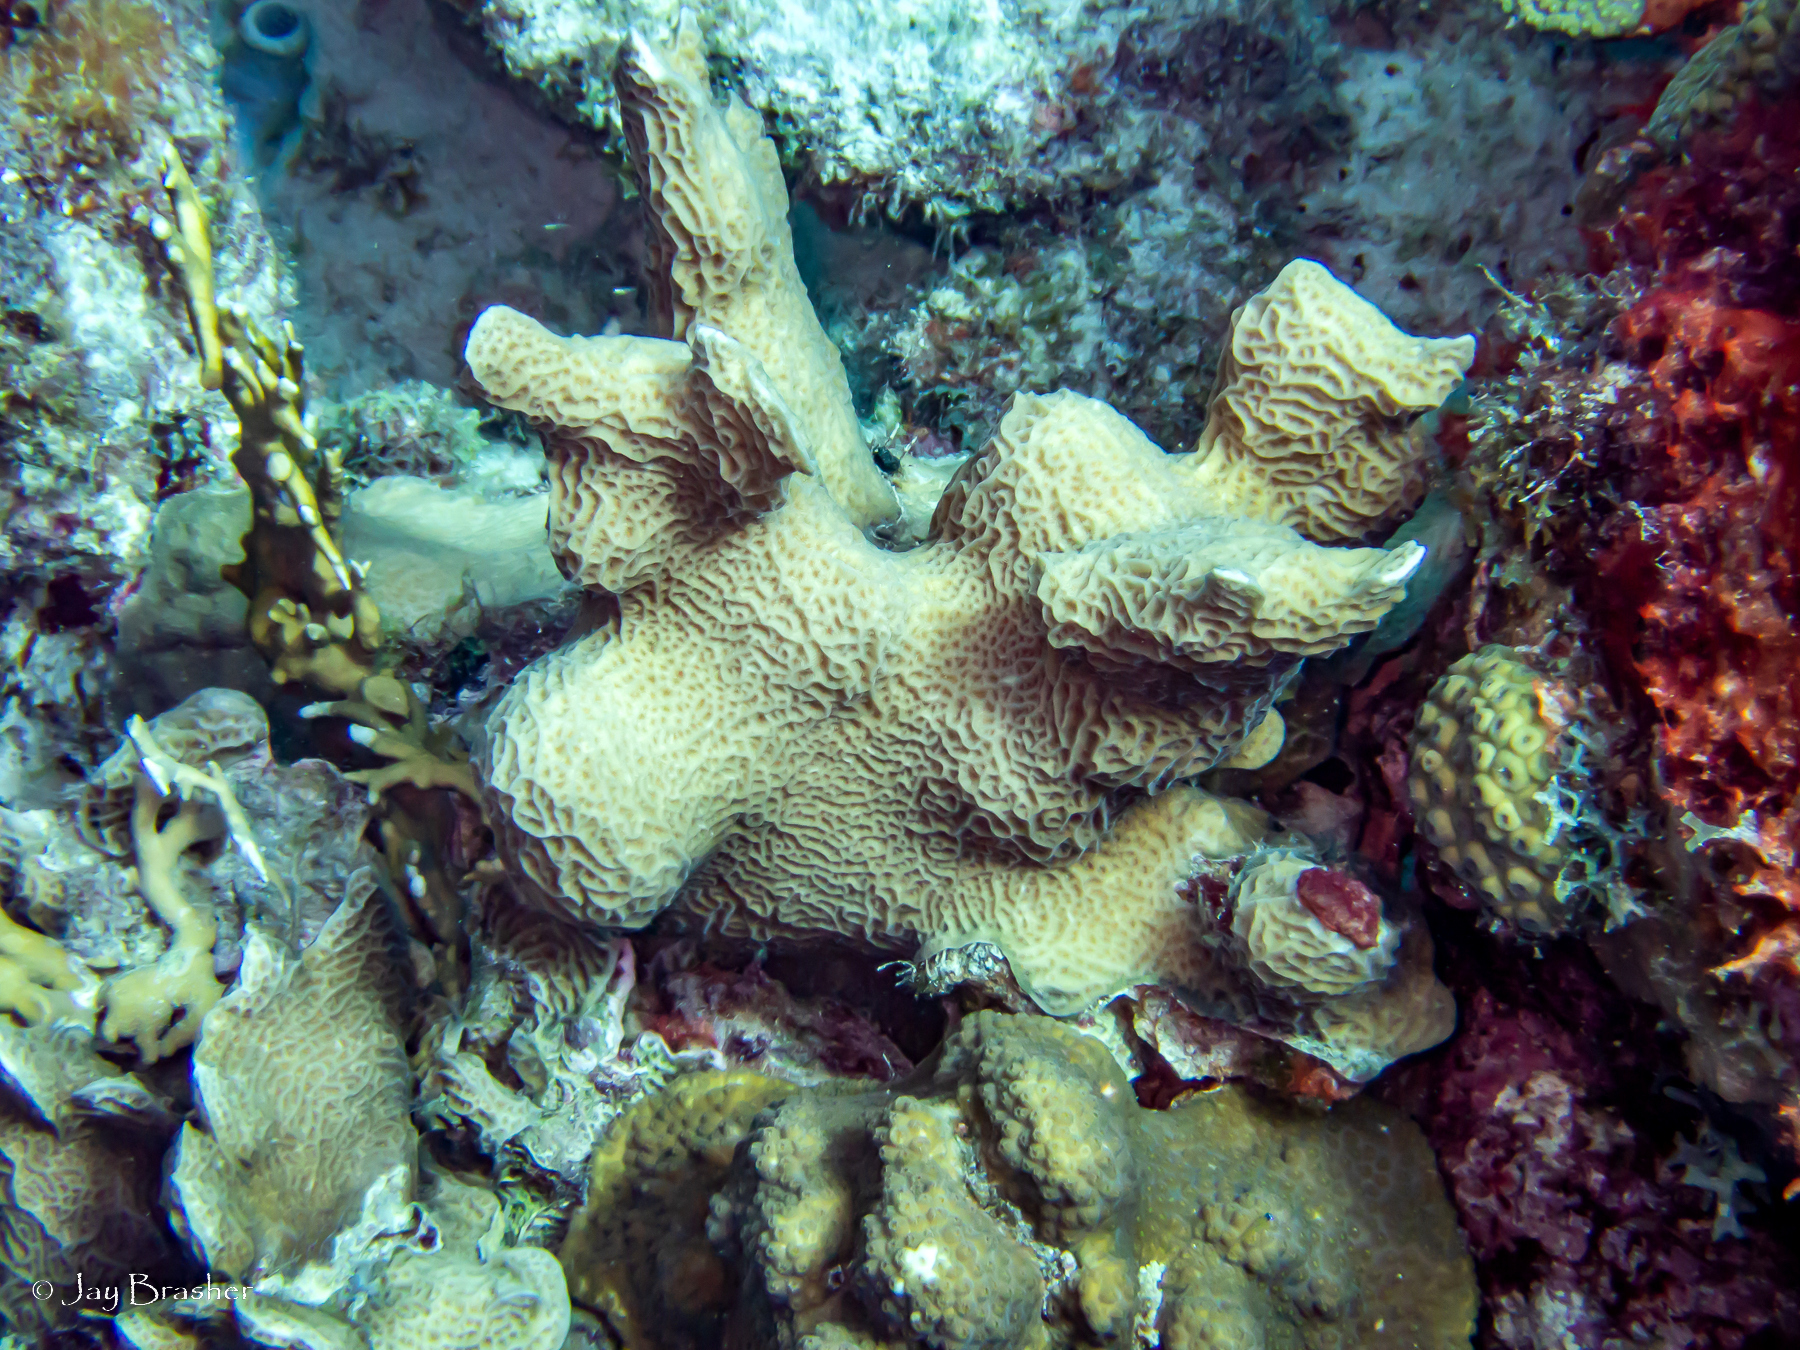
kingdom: Animalia
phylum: Cnidaria
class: Anthozoa
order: Scleractinia
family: Agariciidae
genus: Agaricia
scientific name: Agaricia agaricites
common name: Lettuce coral
